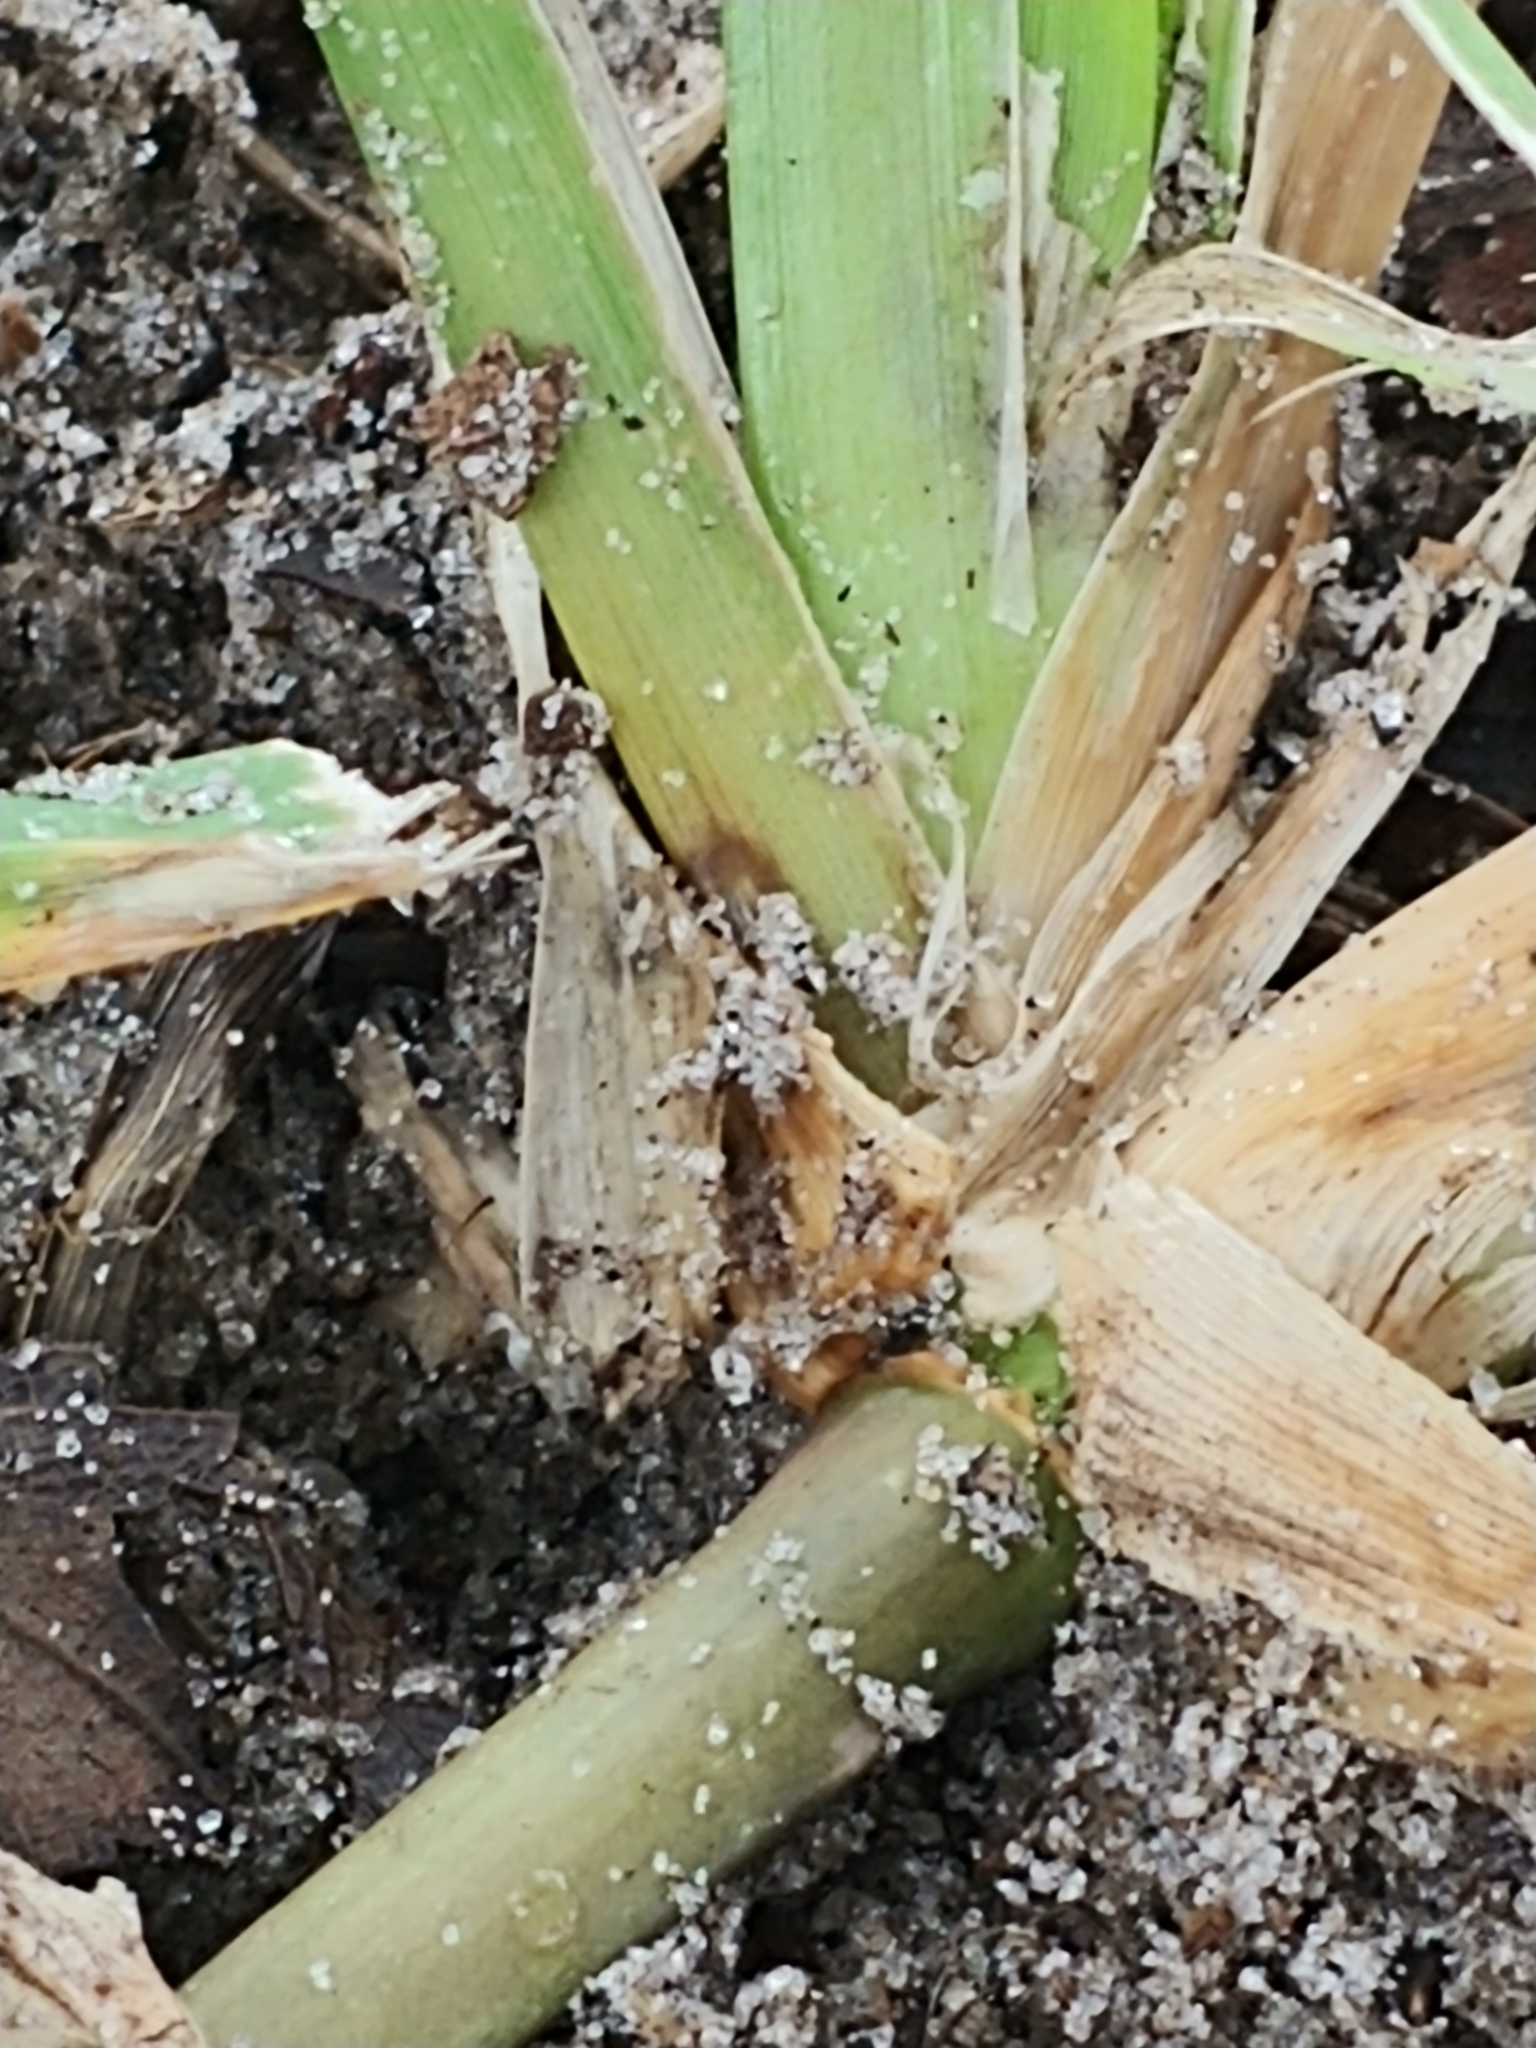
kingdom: Plantae
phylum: Tracheophyta
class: Liliopsida
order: Poales
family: Poaceae
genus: Stenotaphrum
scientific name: Stenotaphrum secundatum
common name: St. augustine grass
